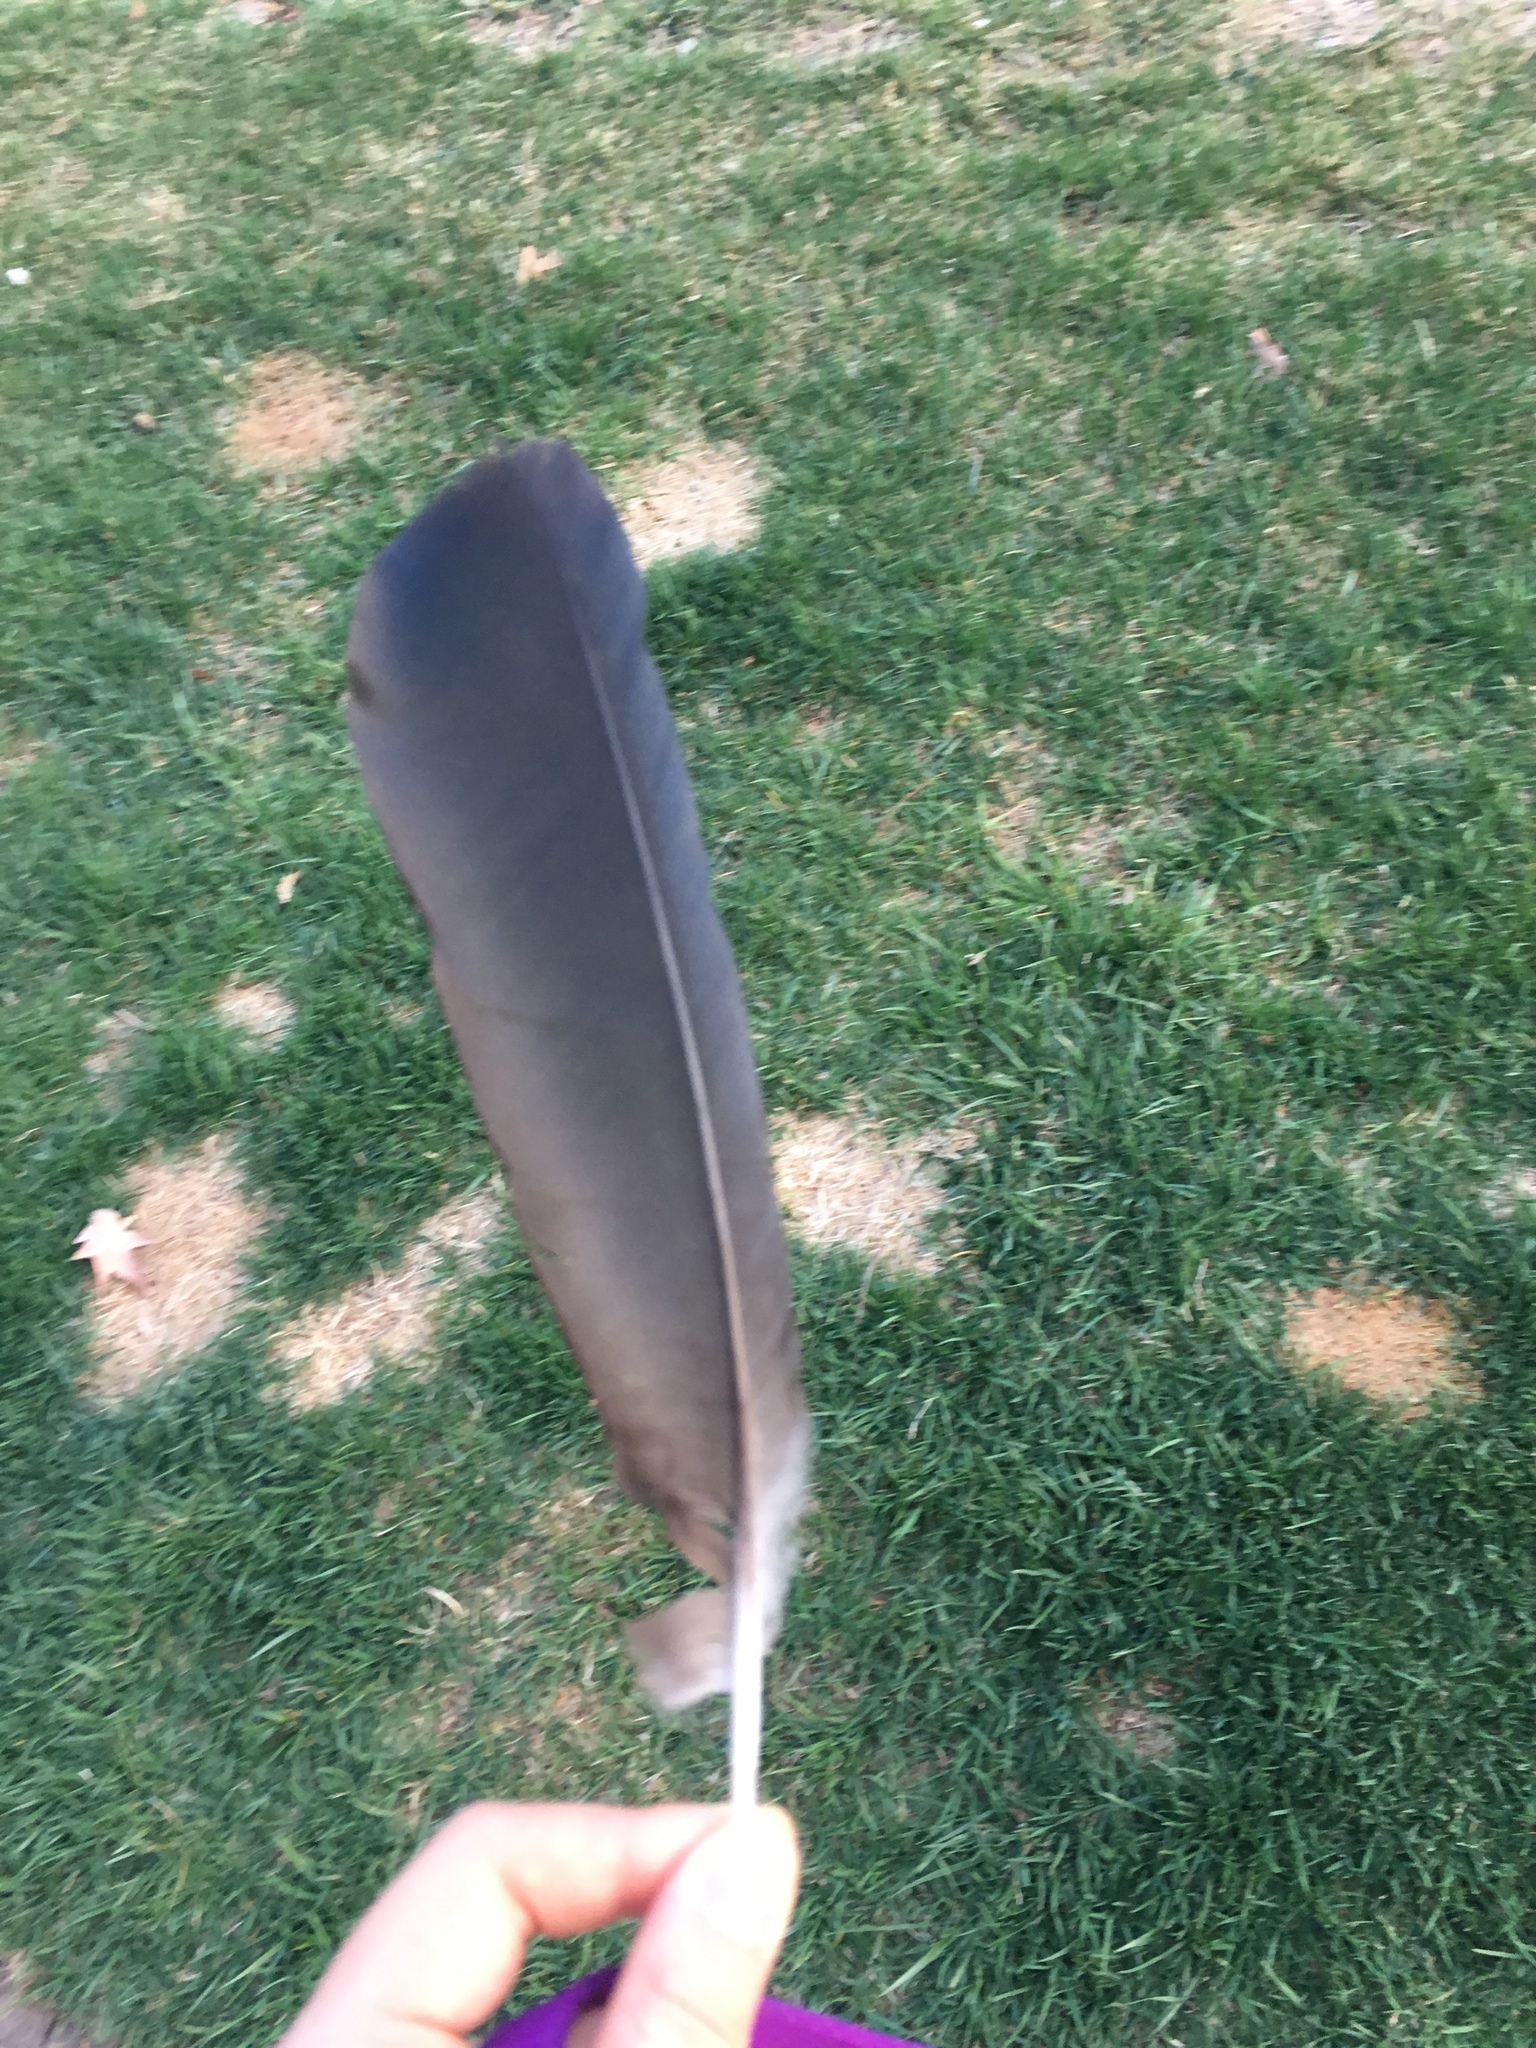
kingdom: Animalia
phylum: Chordata
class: Aves
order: Passeriformes
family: Corvidae
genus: Corvus
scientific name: Corvus brachyrhynchos
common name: American crow
